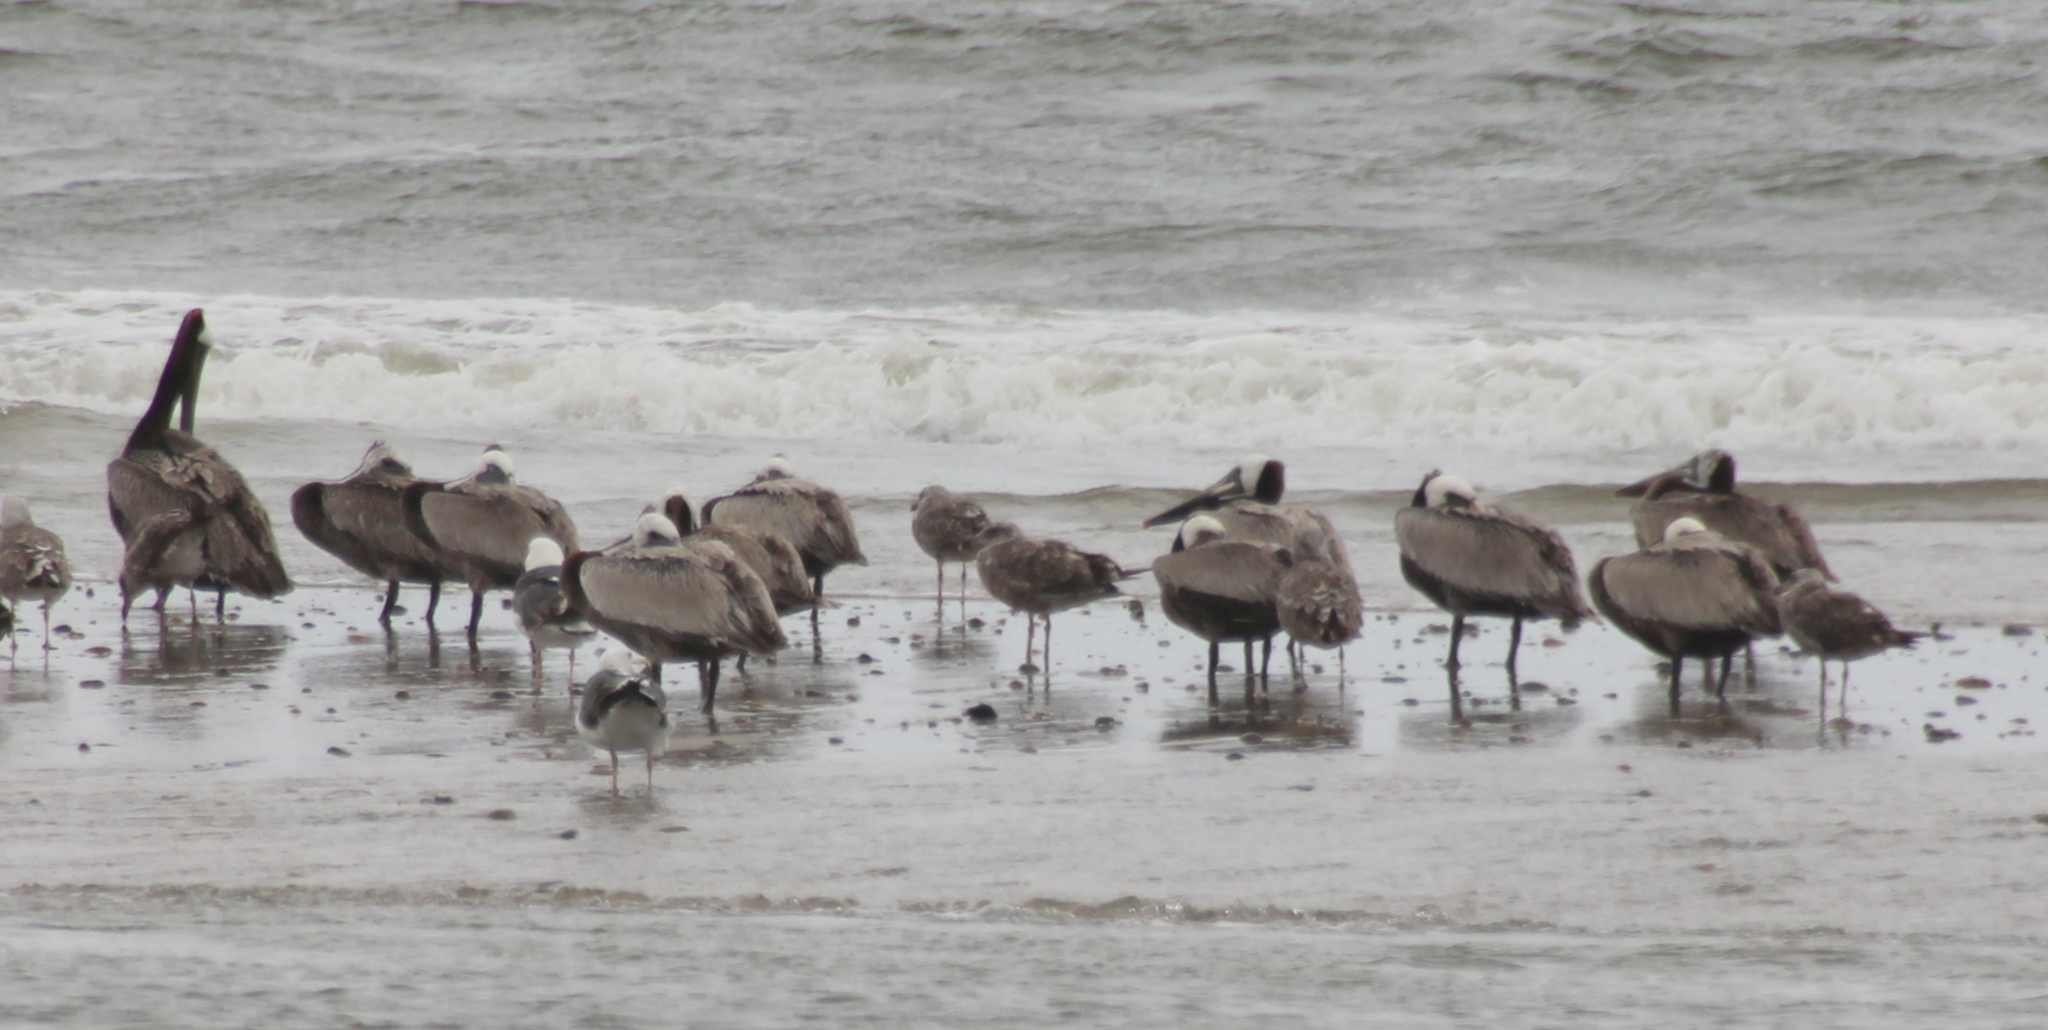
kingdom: Animalia
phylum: Chordata
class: Aves
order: Pelecaniformes
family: Pelecanidae
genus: Pelecanus
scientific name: Pelecanus occidentalis
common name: Brown pelican
